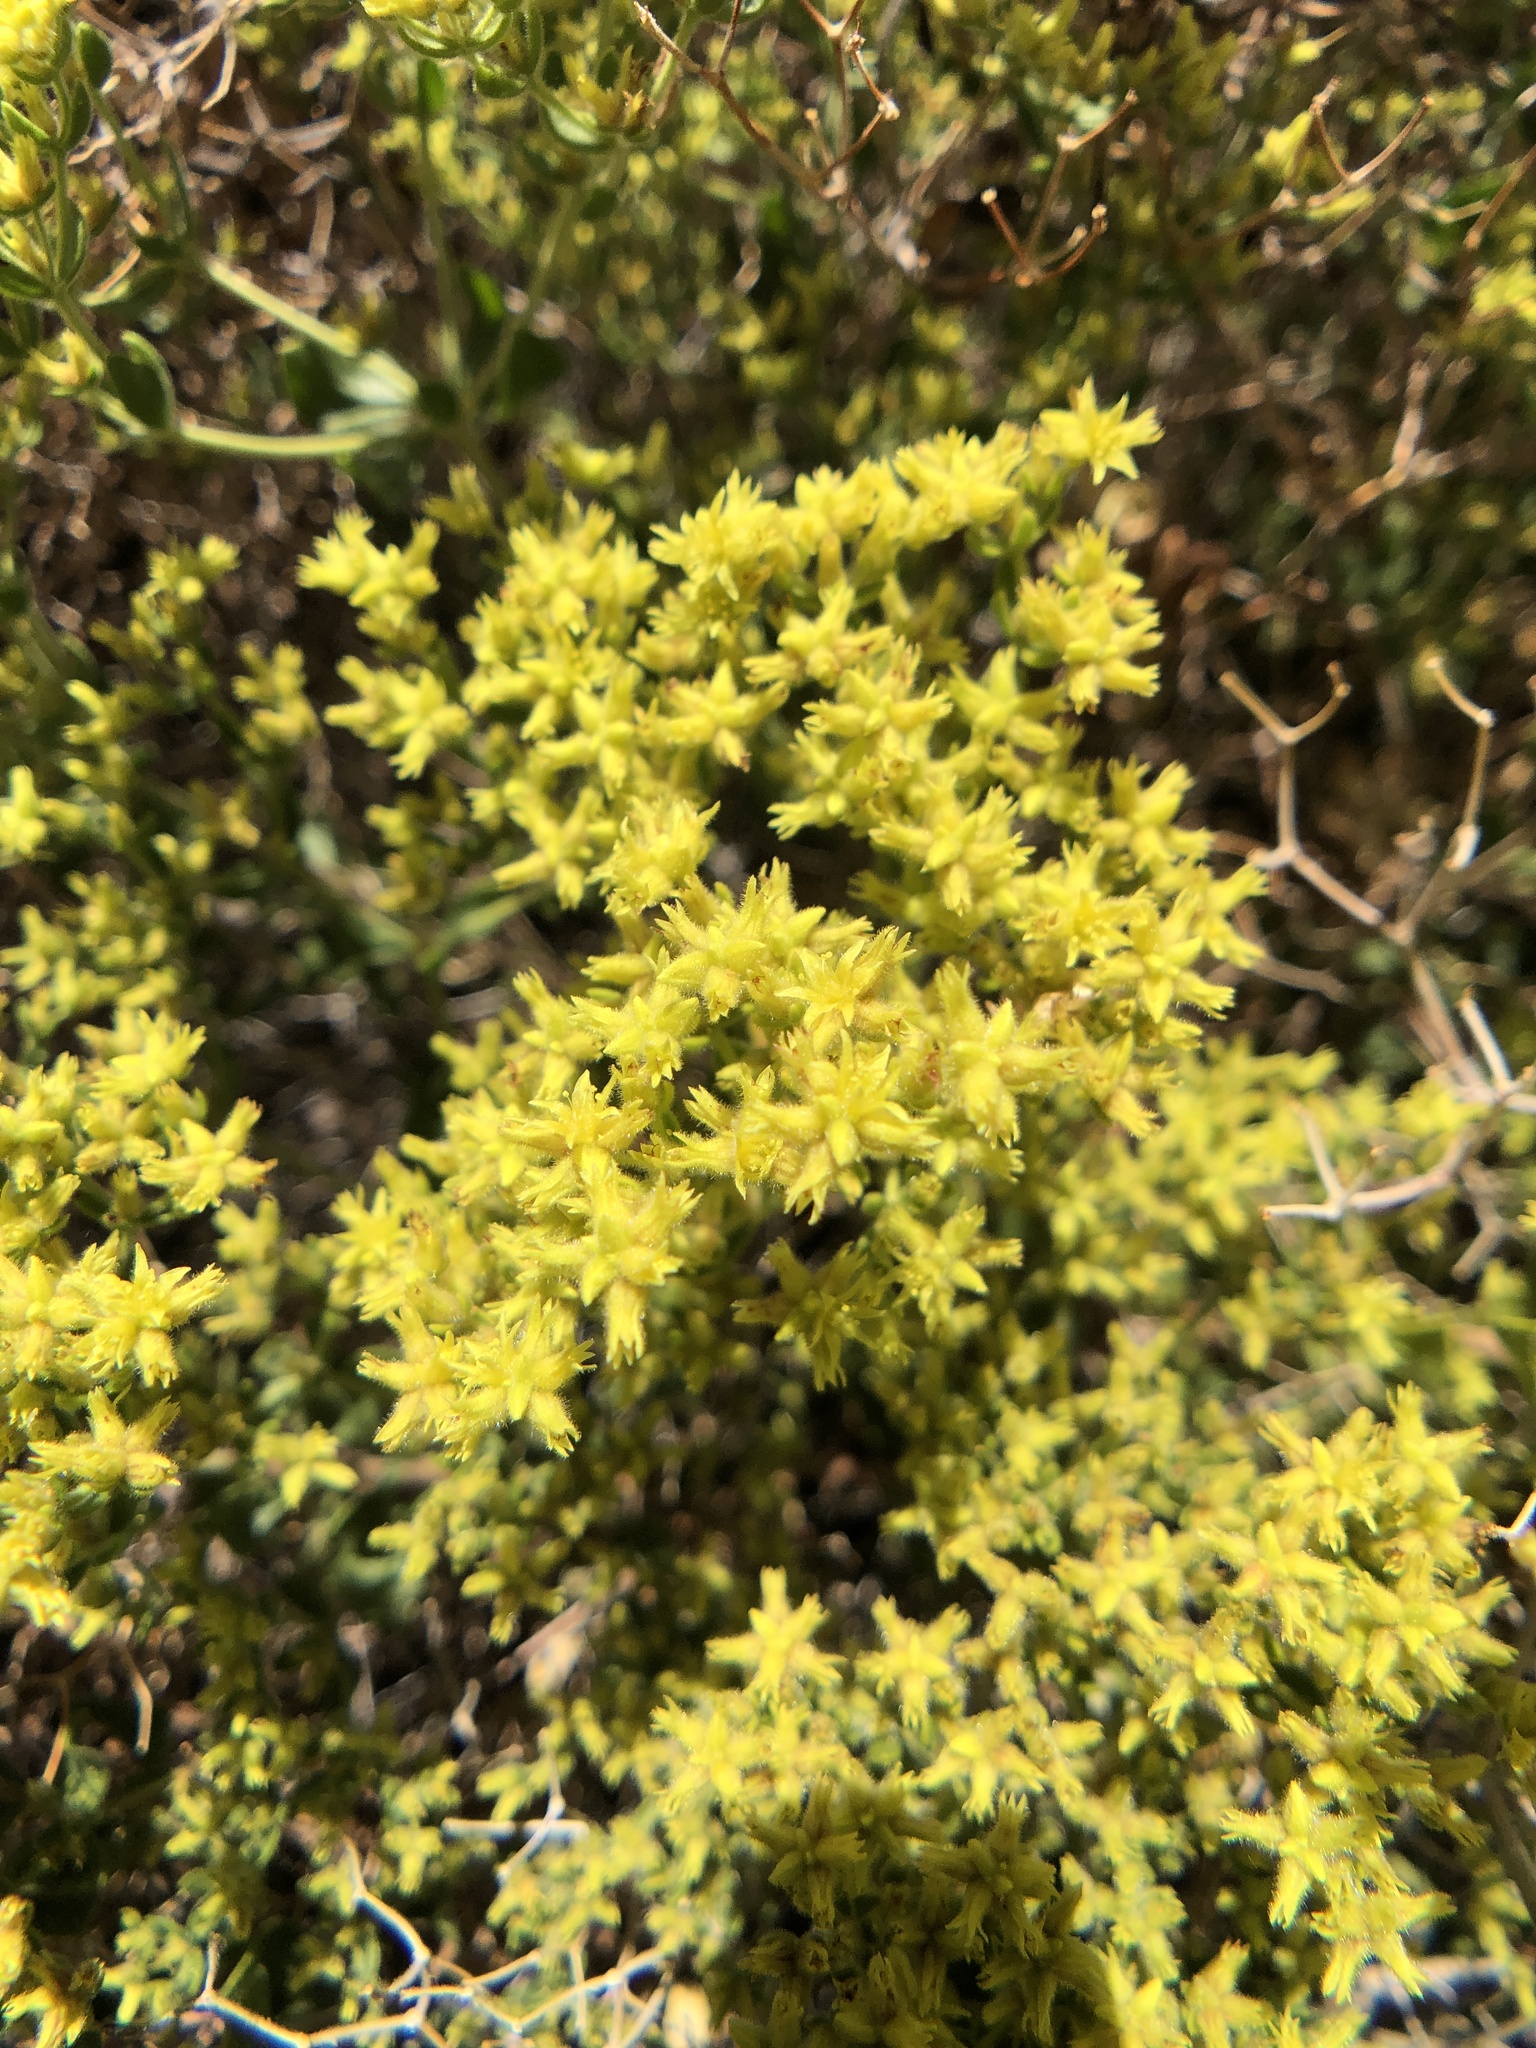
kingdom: Plantae
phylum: Tracheophyta
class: Magnoliopsida
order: Caryophyllales
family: Polygonaceae
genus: Dedeckera
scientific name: Dedeckera eurekensis
